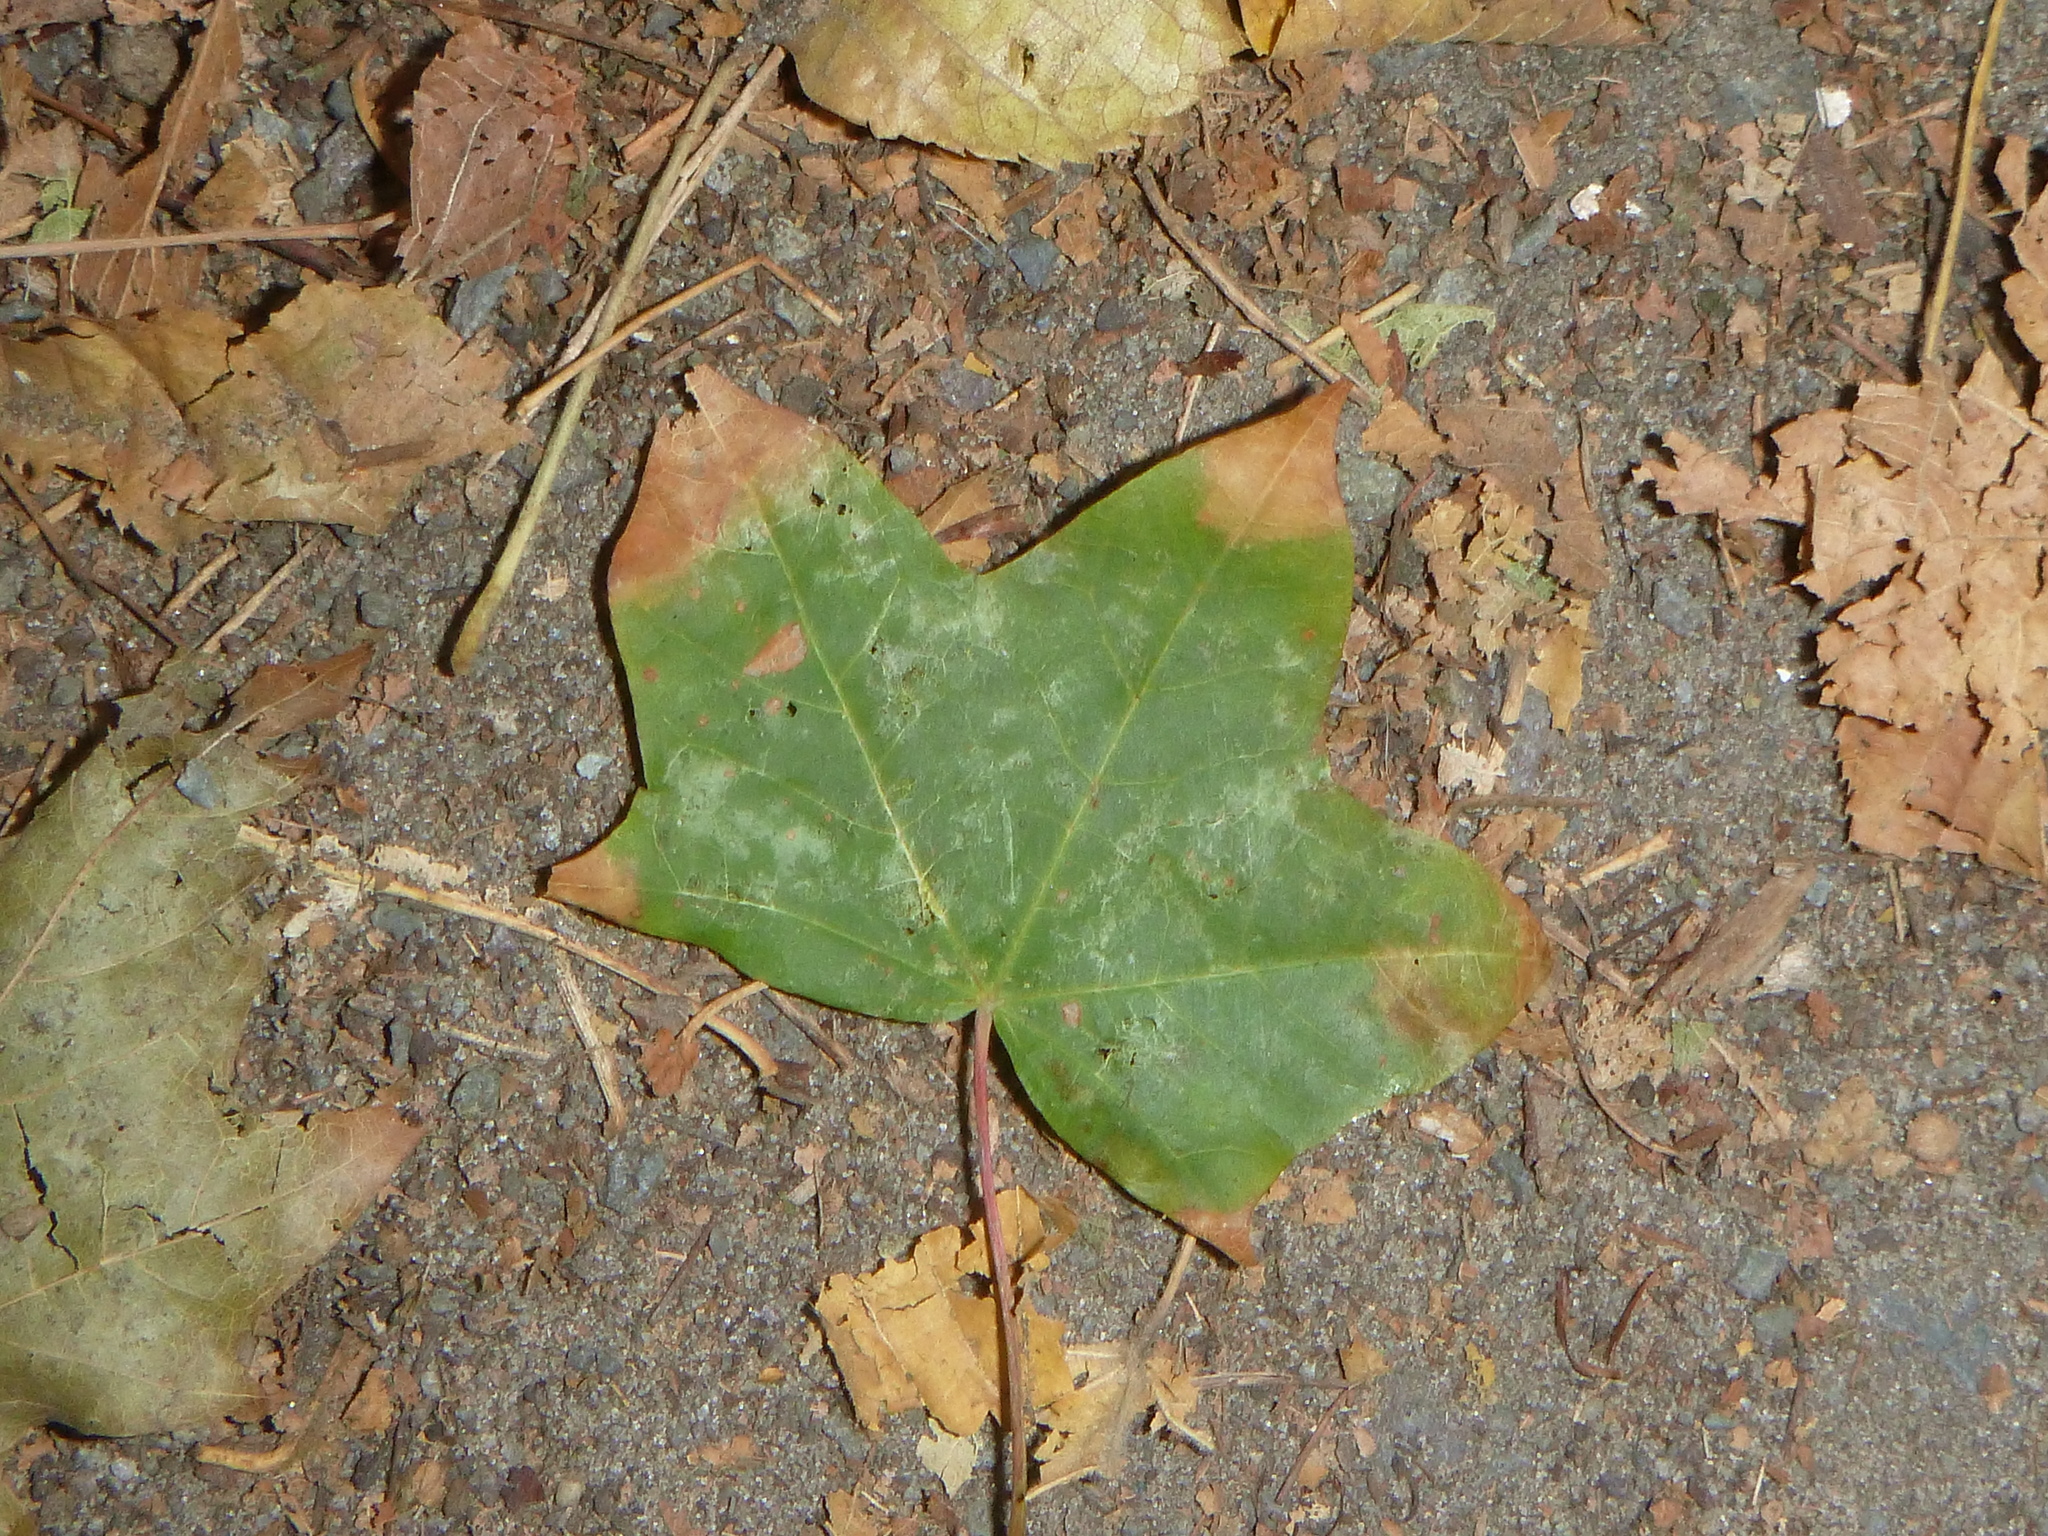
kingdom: Plantae
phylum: Tracheophyta
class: Magnoliopsida
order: Apiales
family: Araliaceae
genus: Hedera
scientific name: Hedera helix
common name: Ivy
